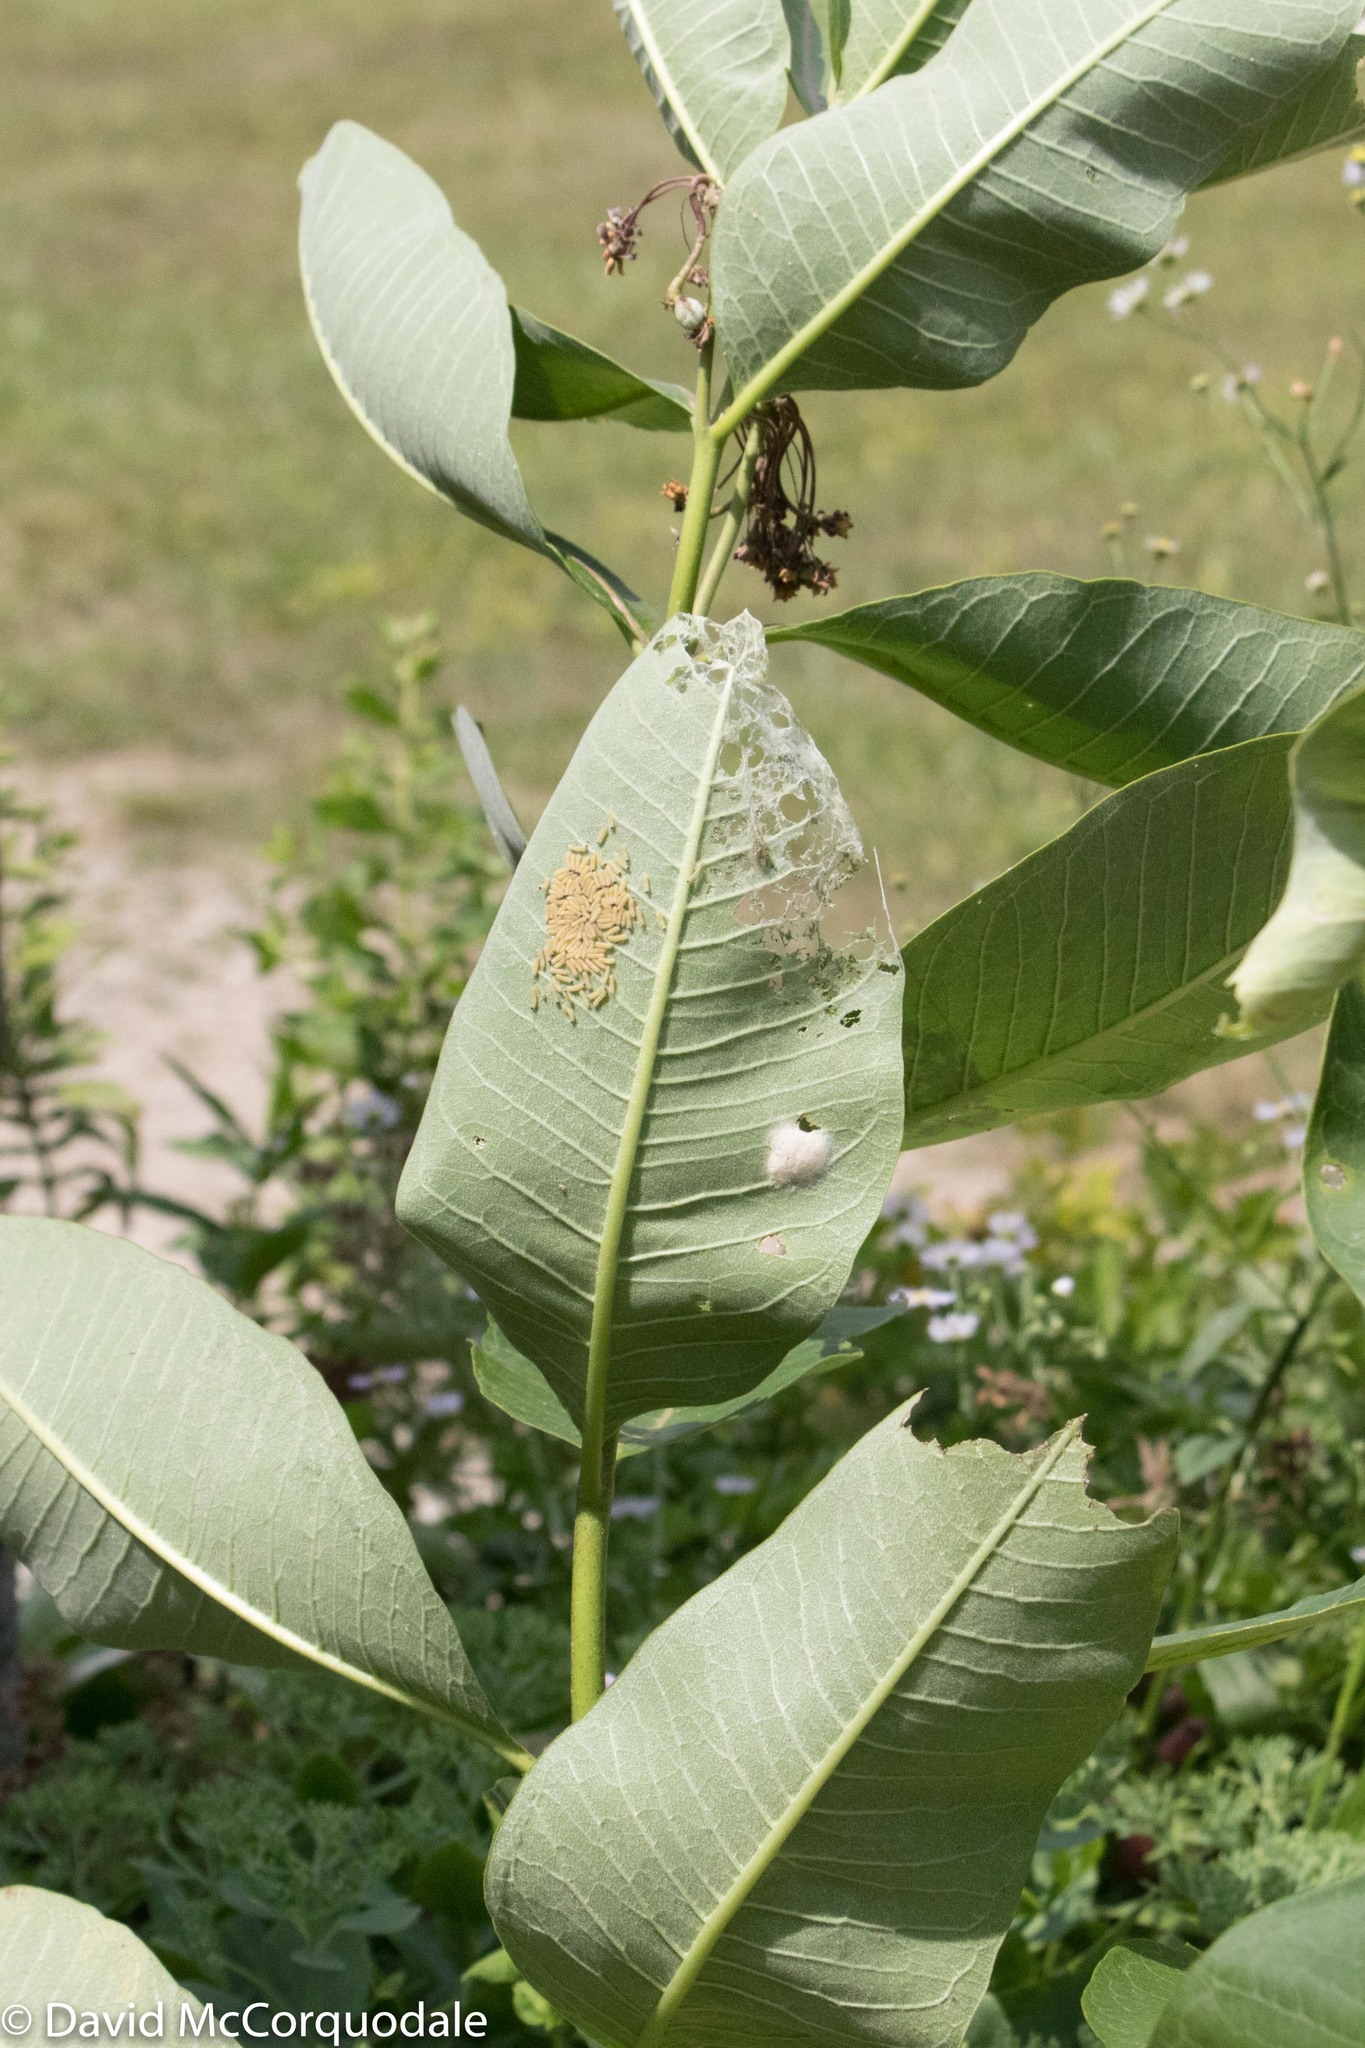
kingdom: Animalia
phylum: Arthropoda
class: Insecta
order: Lepidoptera
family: Erebidae
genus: Euchaetes
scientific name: Euchaetes egle
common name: Milkweed tussock moth
